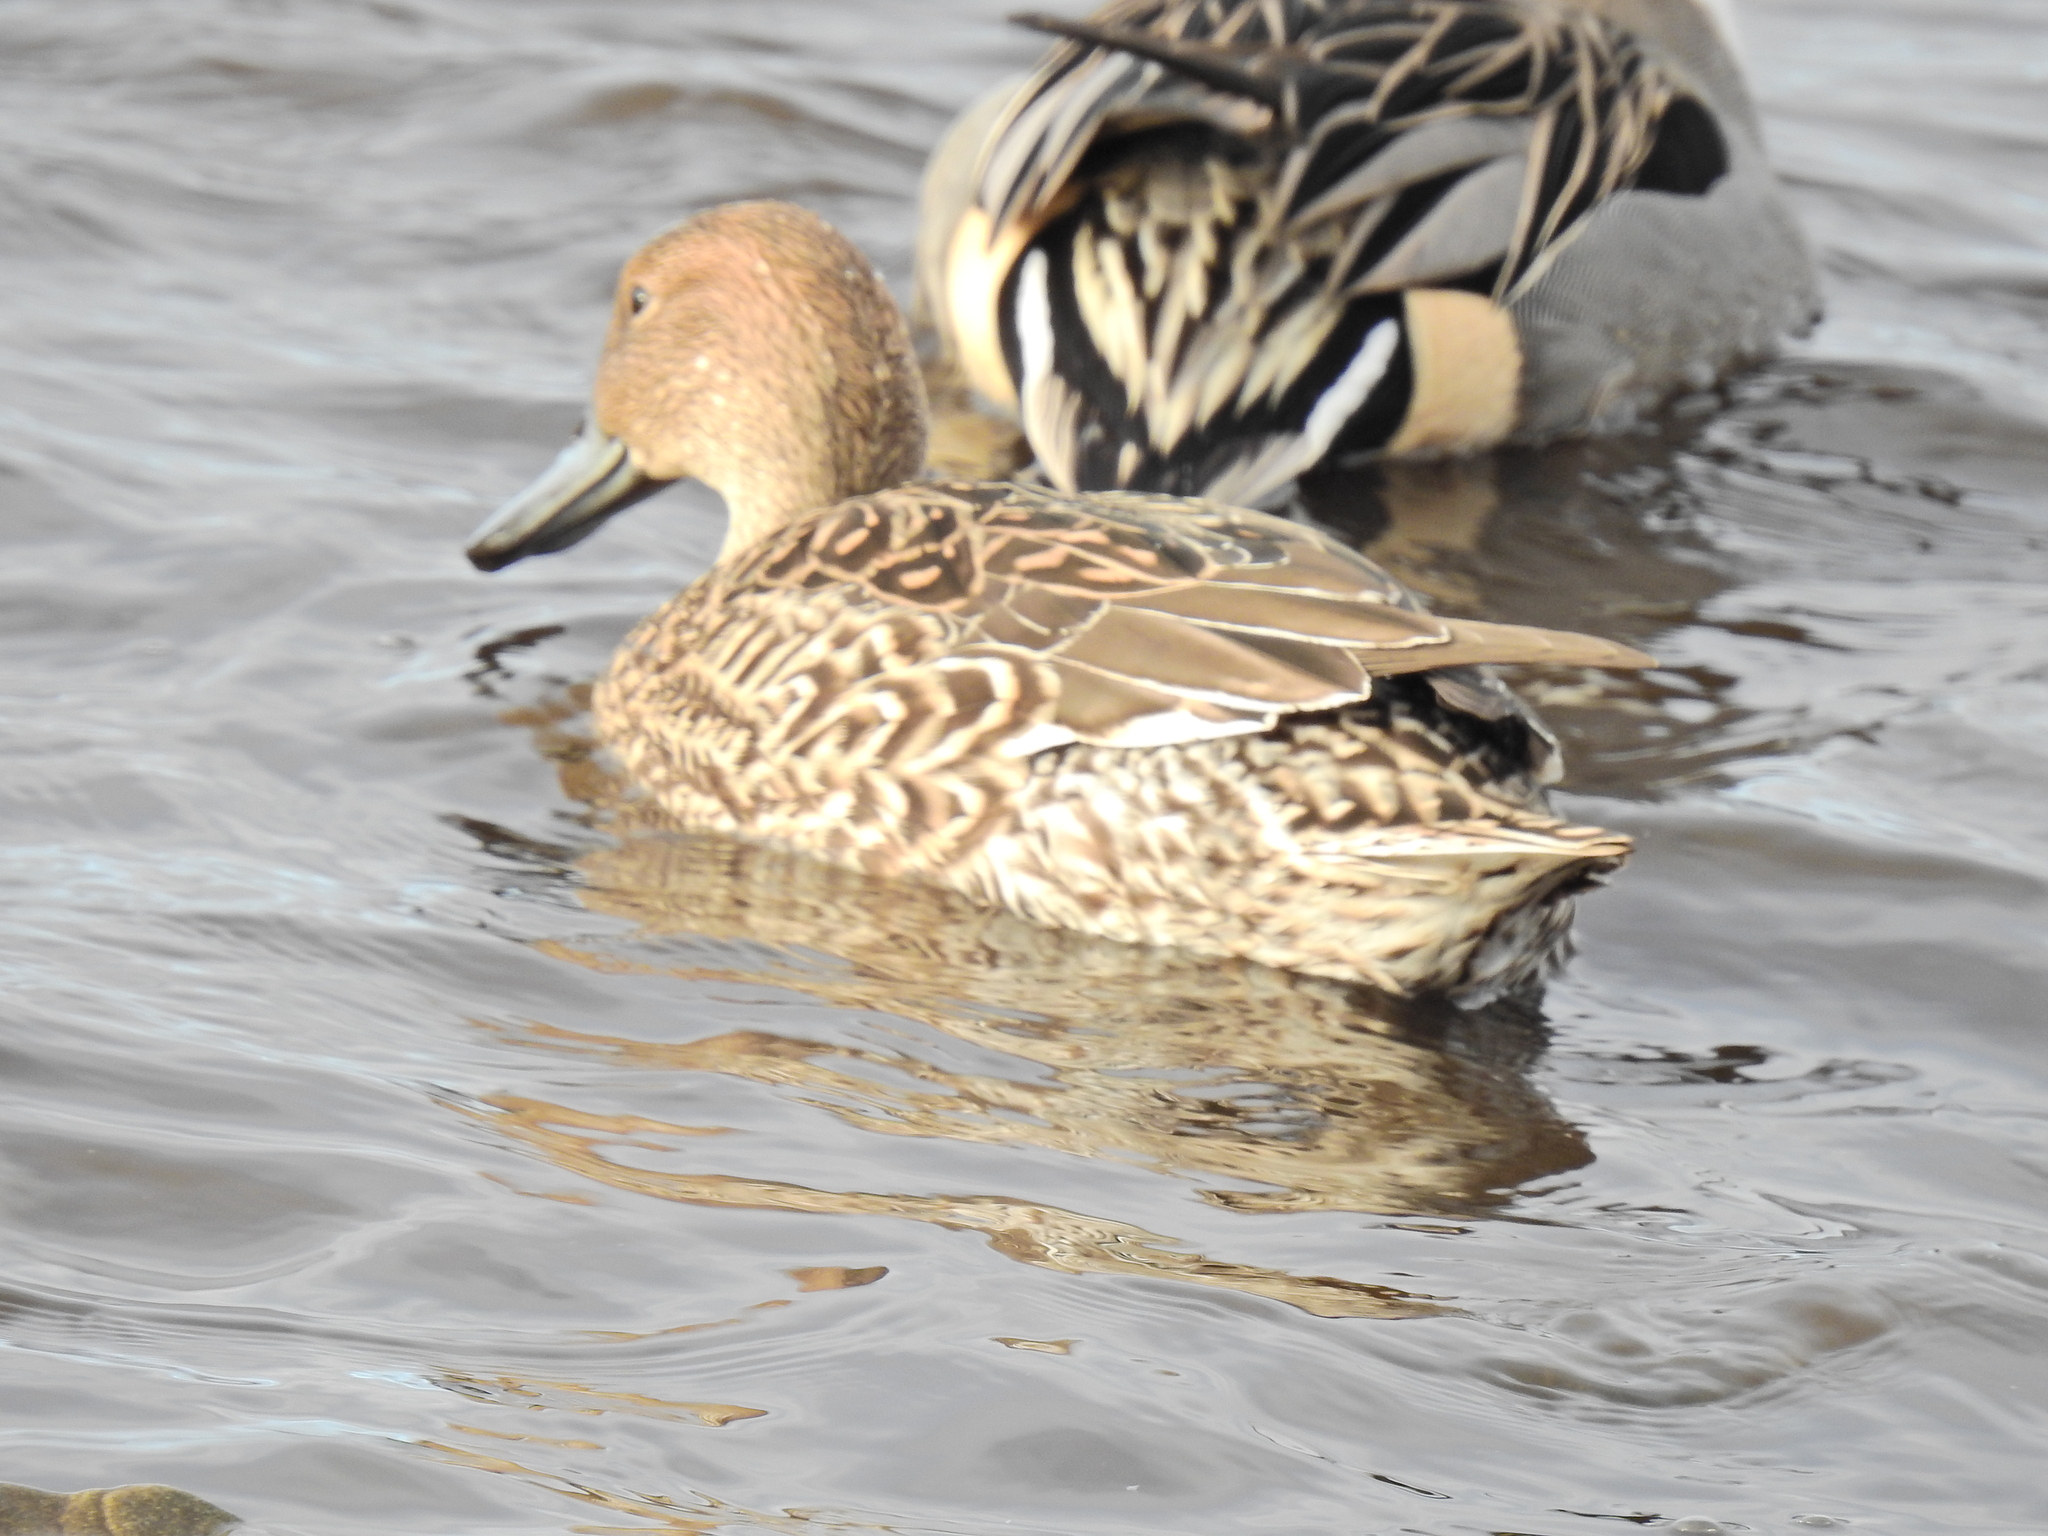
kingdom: Animalia
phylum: Chordata
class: Aves
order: Anseriformes
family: Anatidae
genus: Anas
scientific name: Anas acuta
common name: Northern pintail
